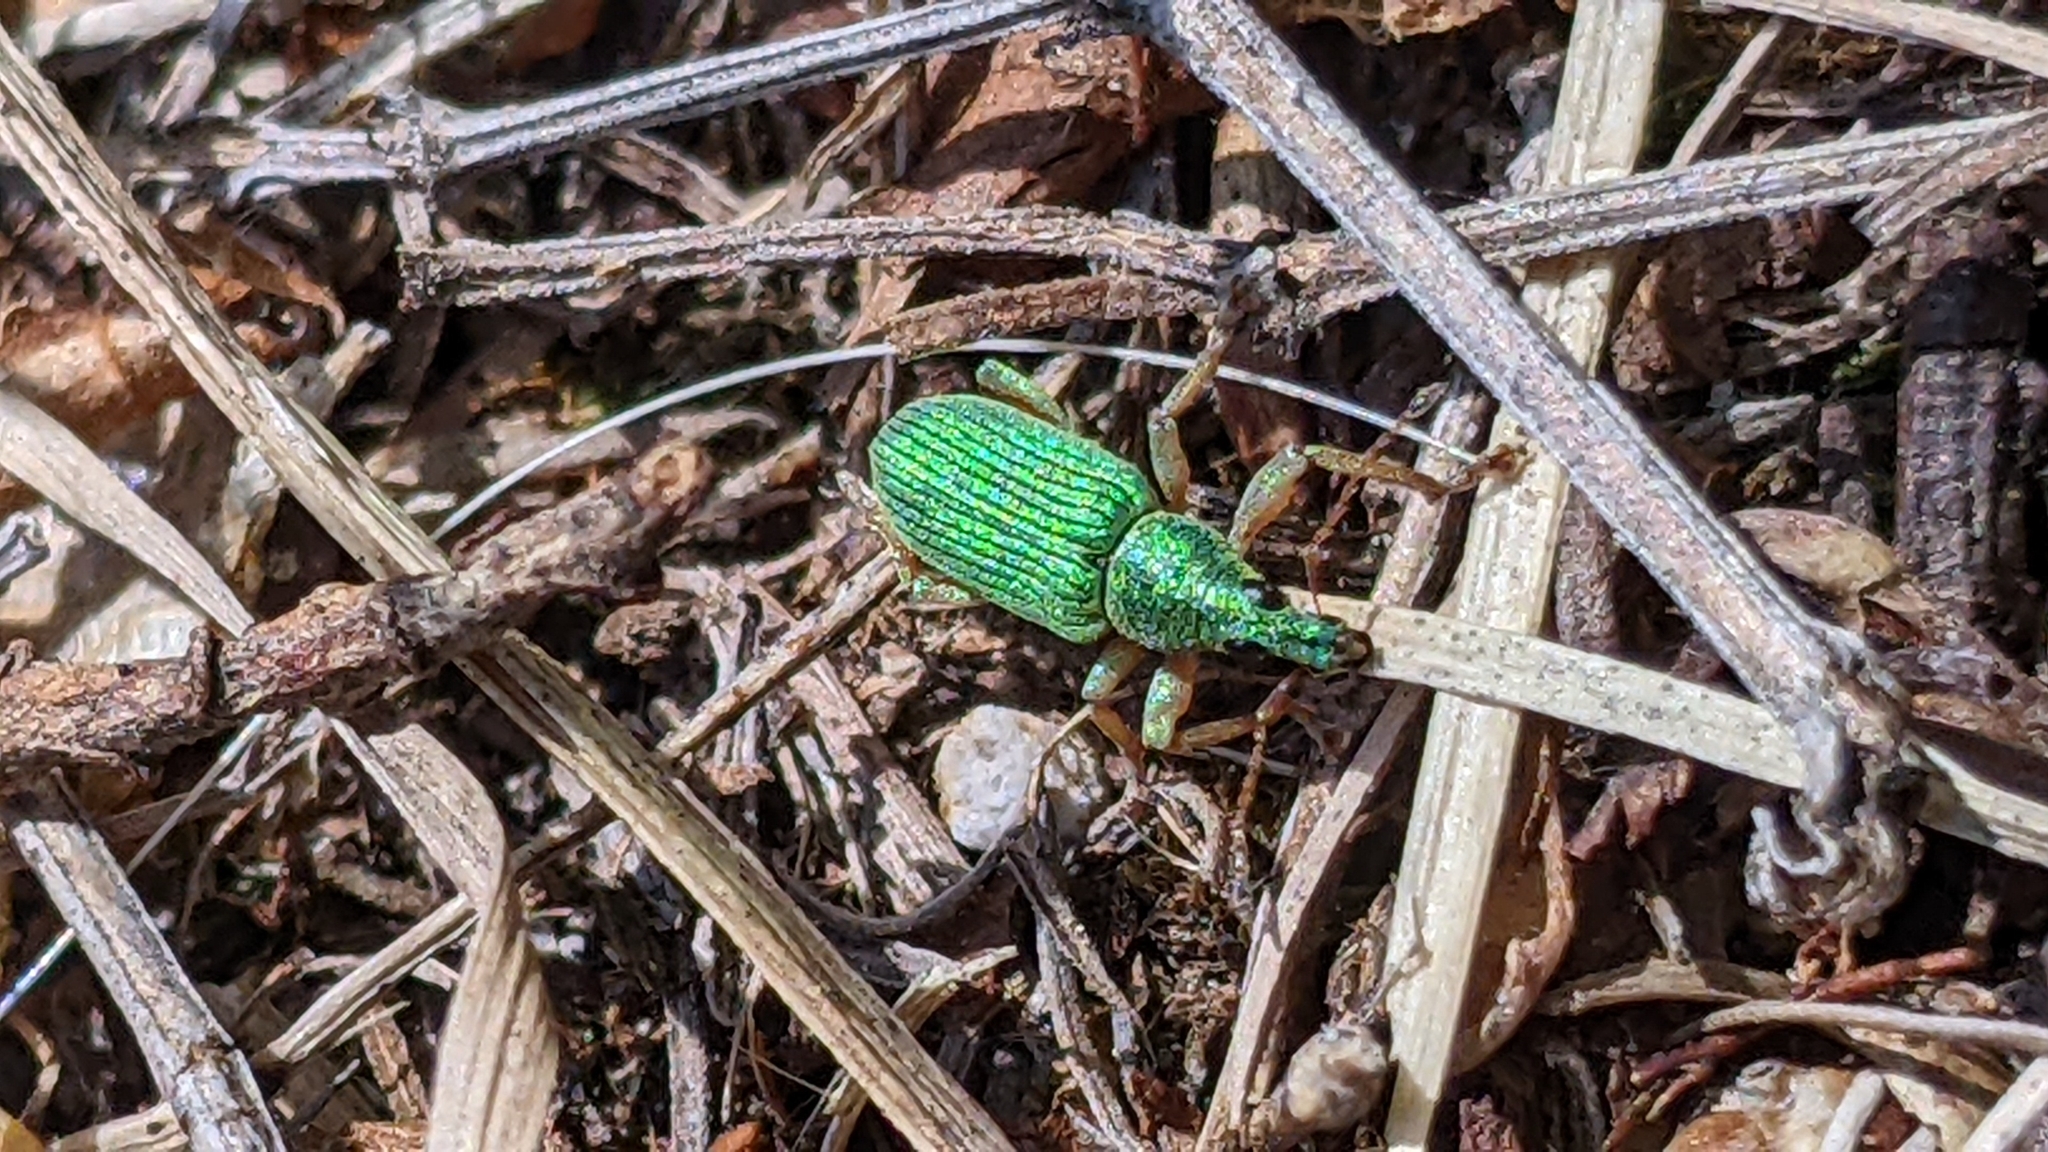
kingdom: Animalia
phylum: Arthropoda
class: Insecta
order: Coleoptera
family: Curculionidae
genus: Polydrusus
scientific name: Polydrusus formosus
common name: Weevil
